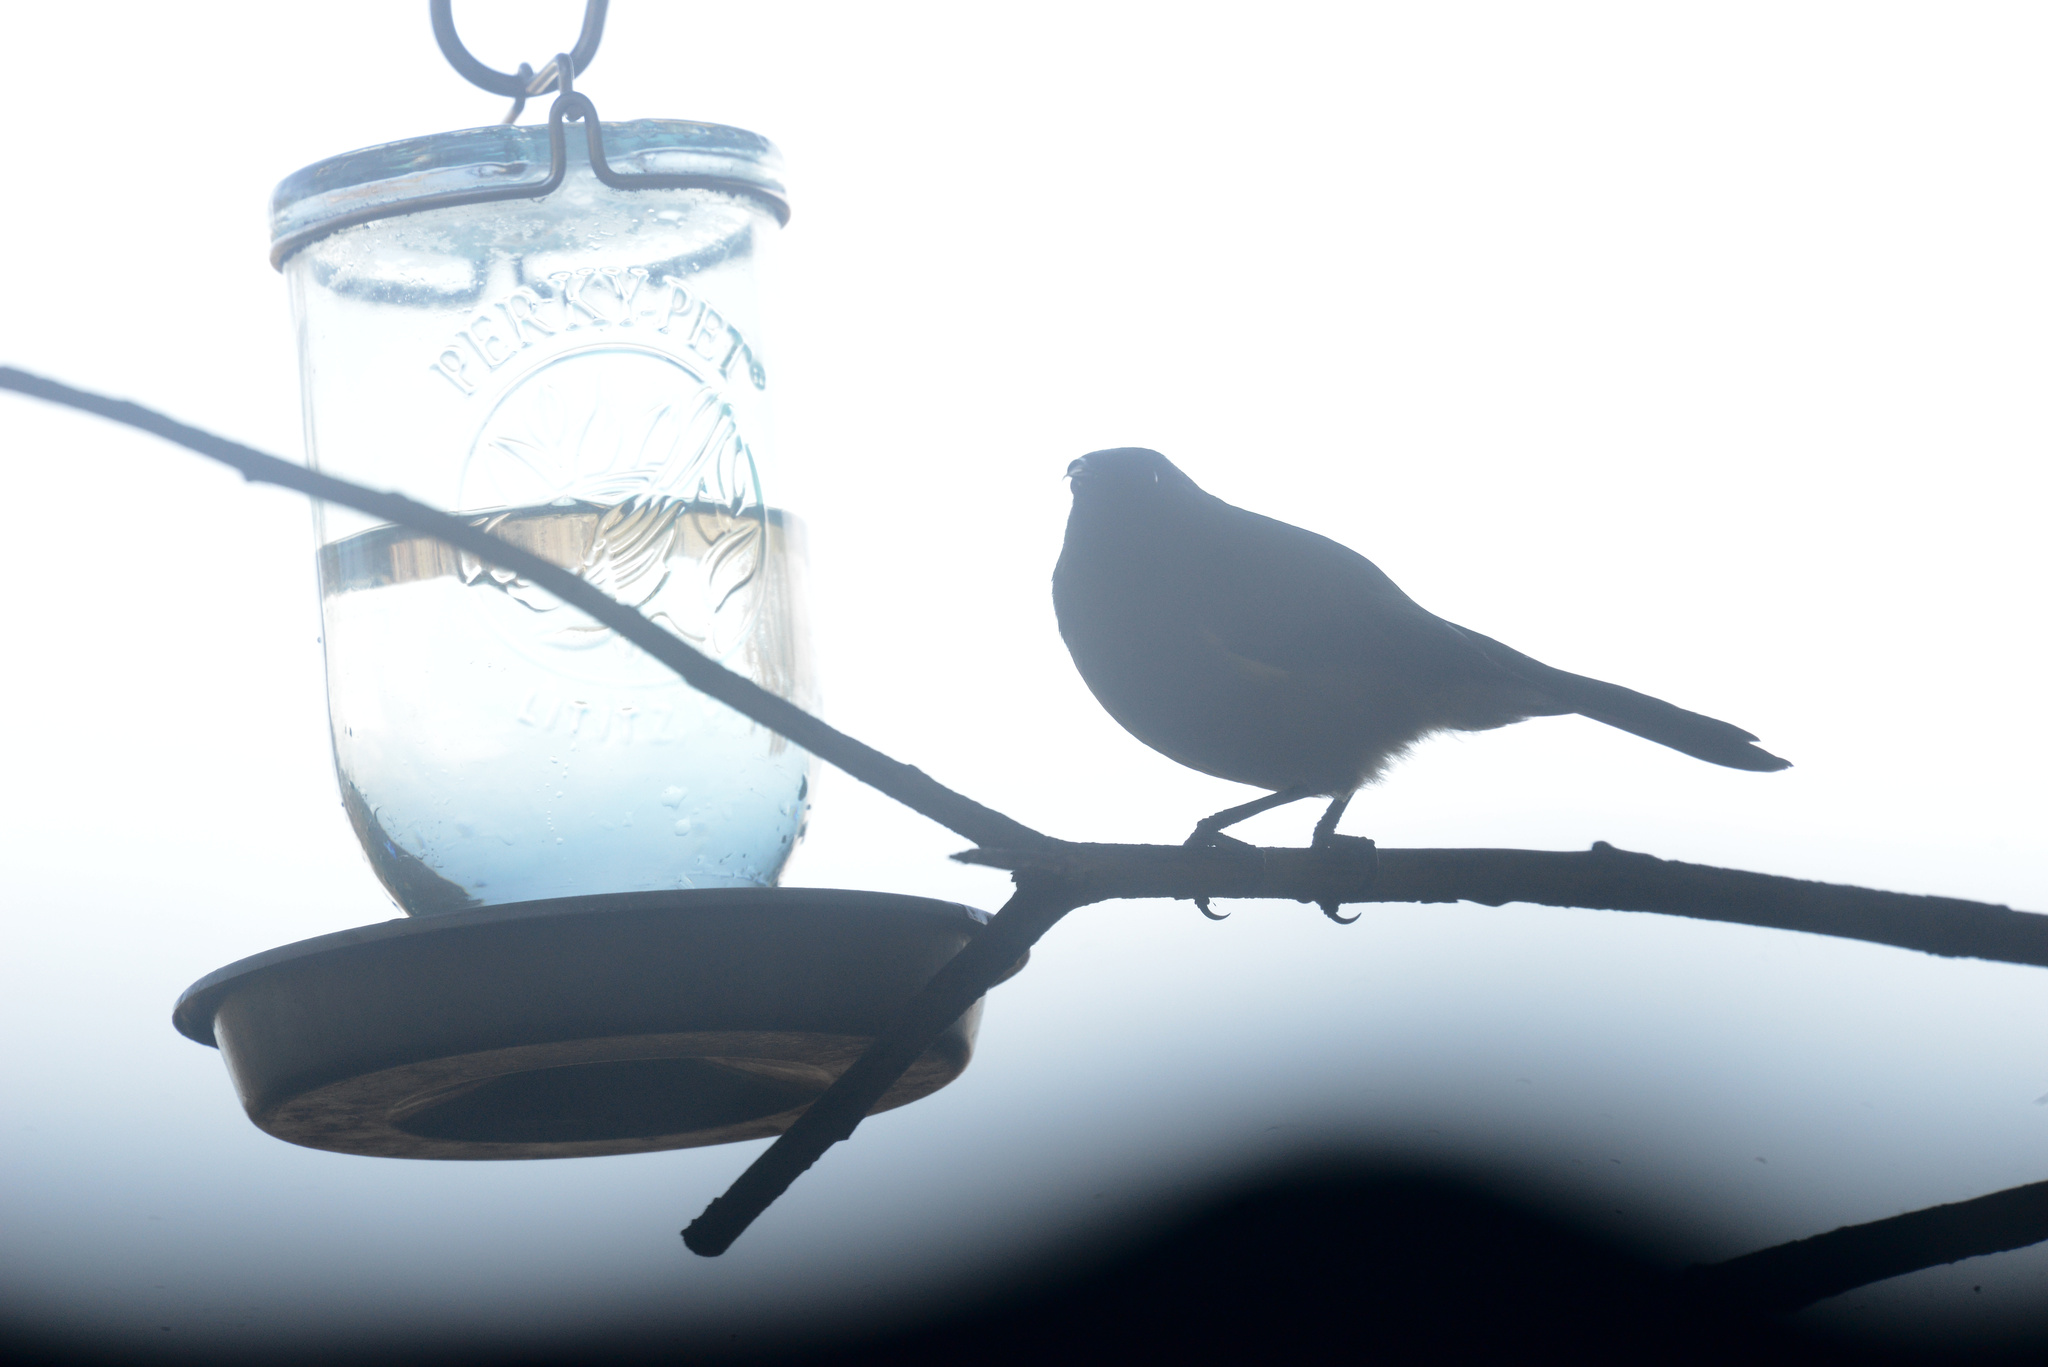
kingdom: Animalia
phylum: Chordata
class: Aves
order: Passeriformes
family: Meliphagidae
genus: Anthornis
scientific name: Anthornis melanura
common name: New zealand bellbird
